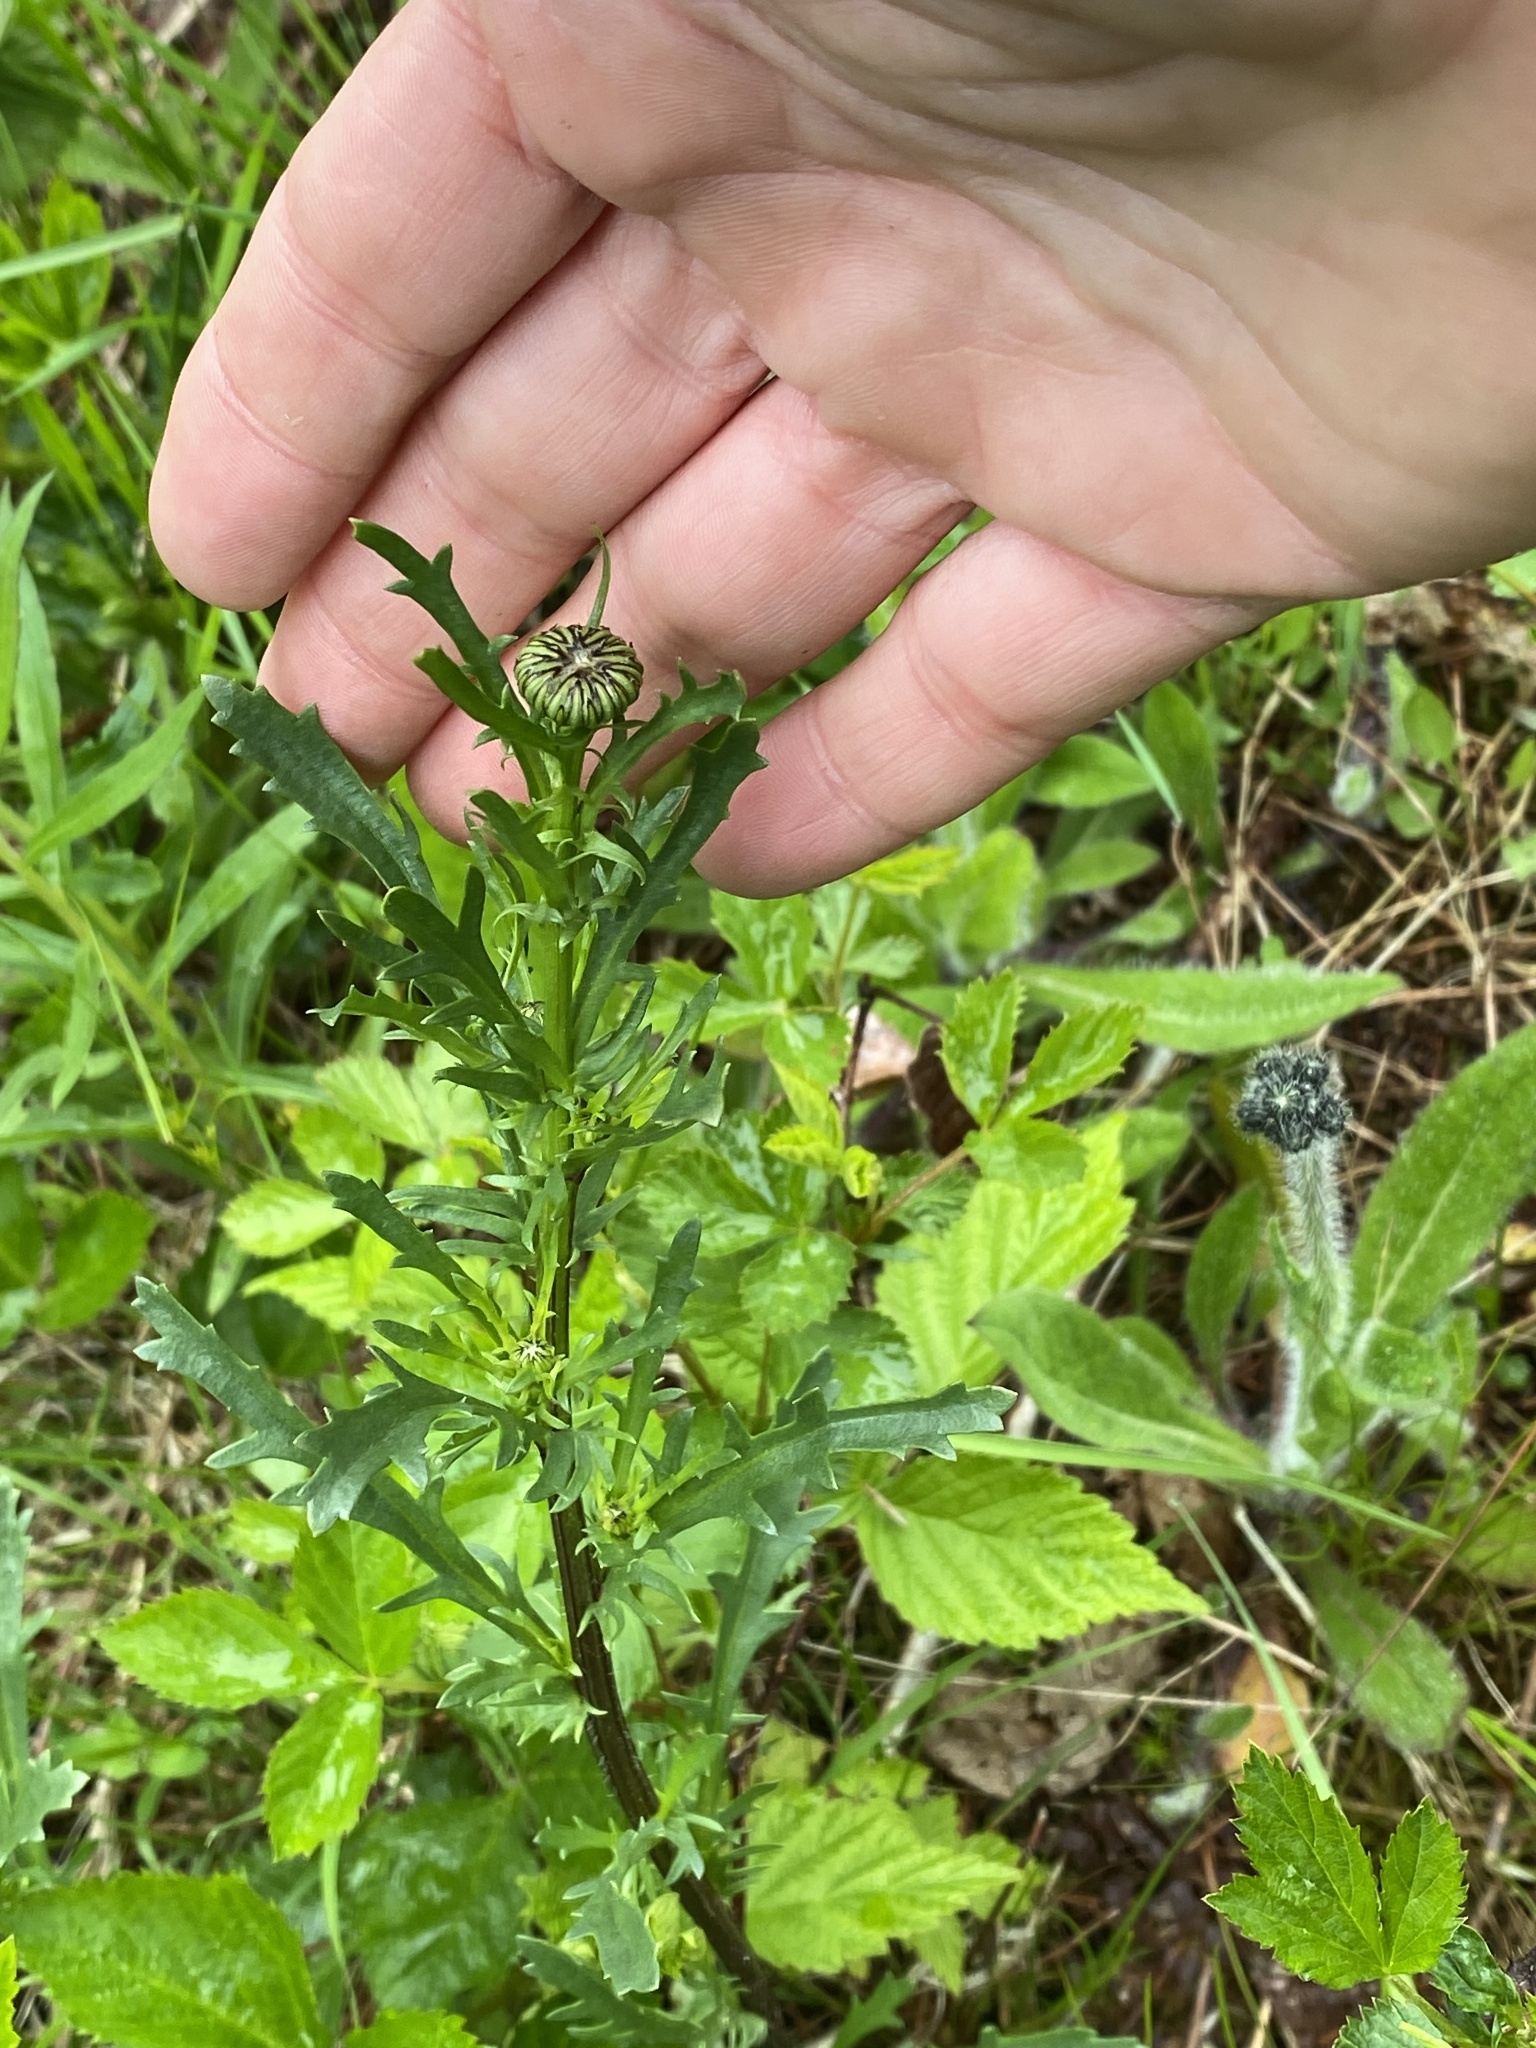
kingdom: Plantae
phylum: Tracheophyta
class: Magnoliopsida
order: Asterales
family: Asteraceae
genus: Leucanthemum
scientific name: Leucanthemum vulgare
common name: Oxeye daisy
